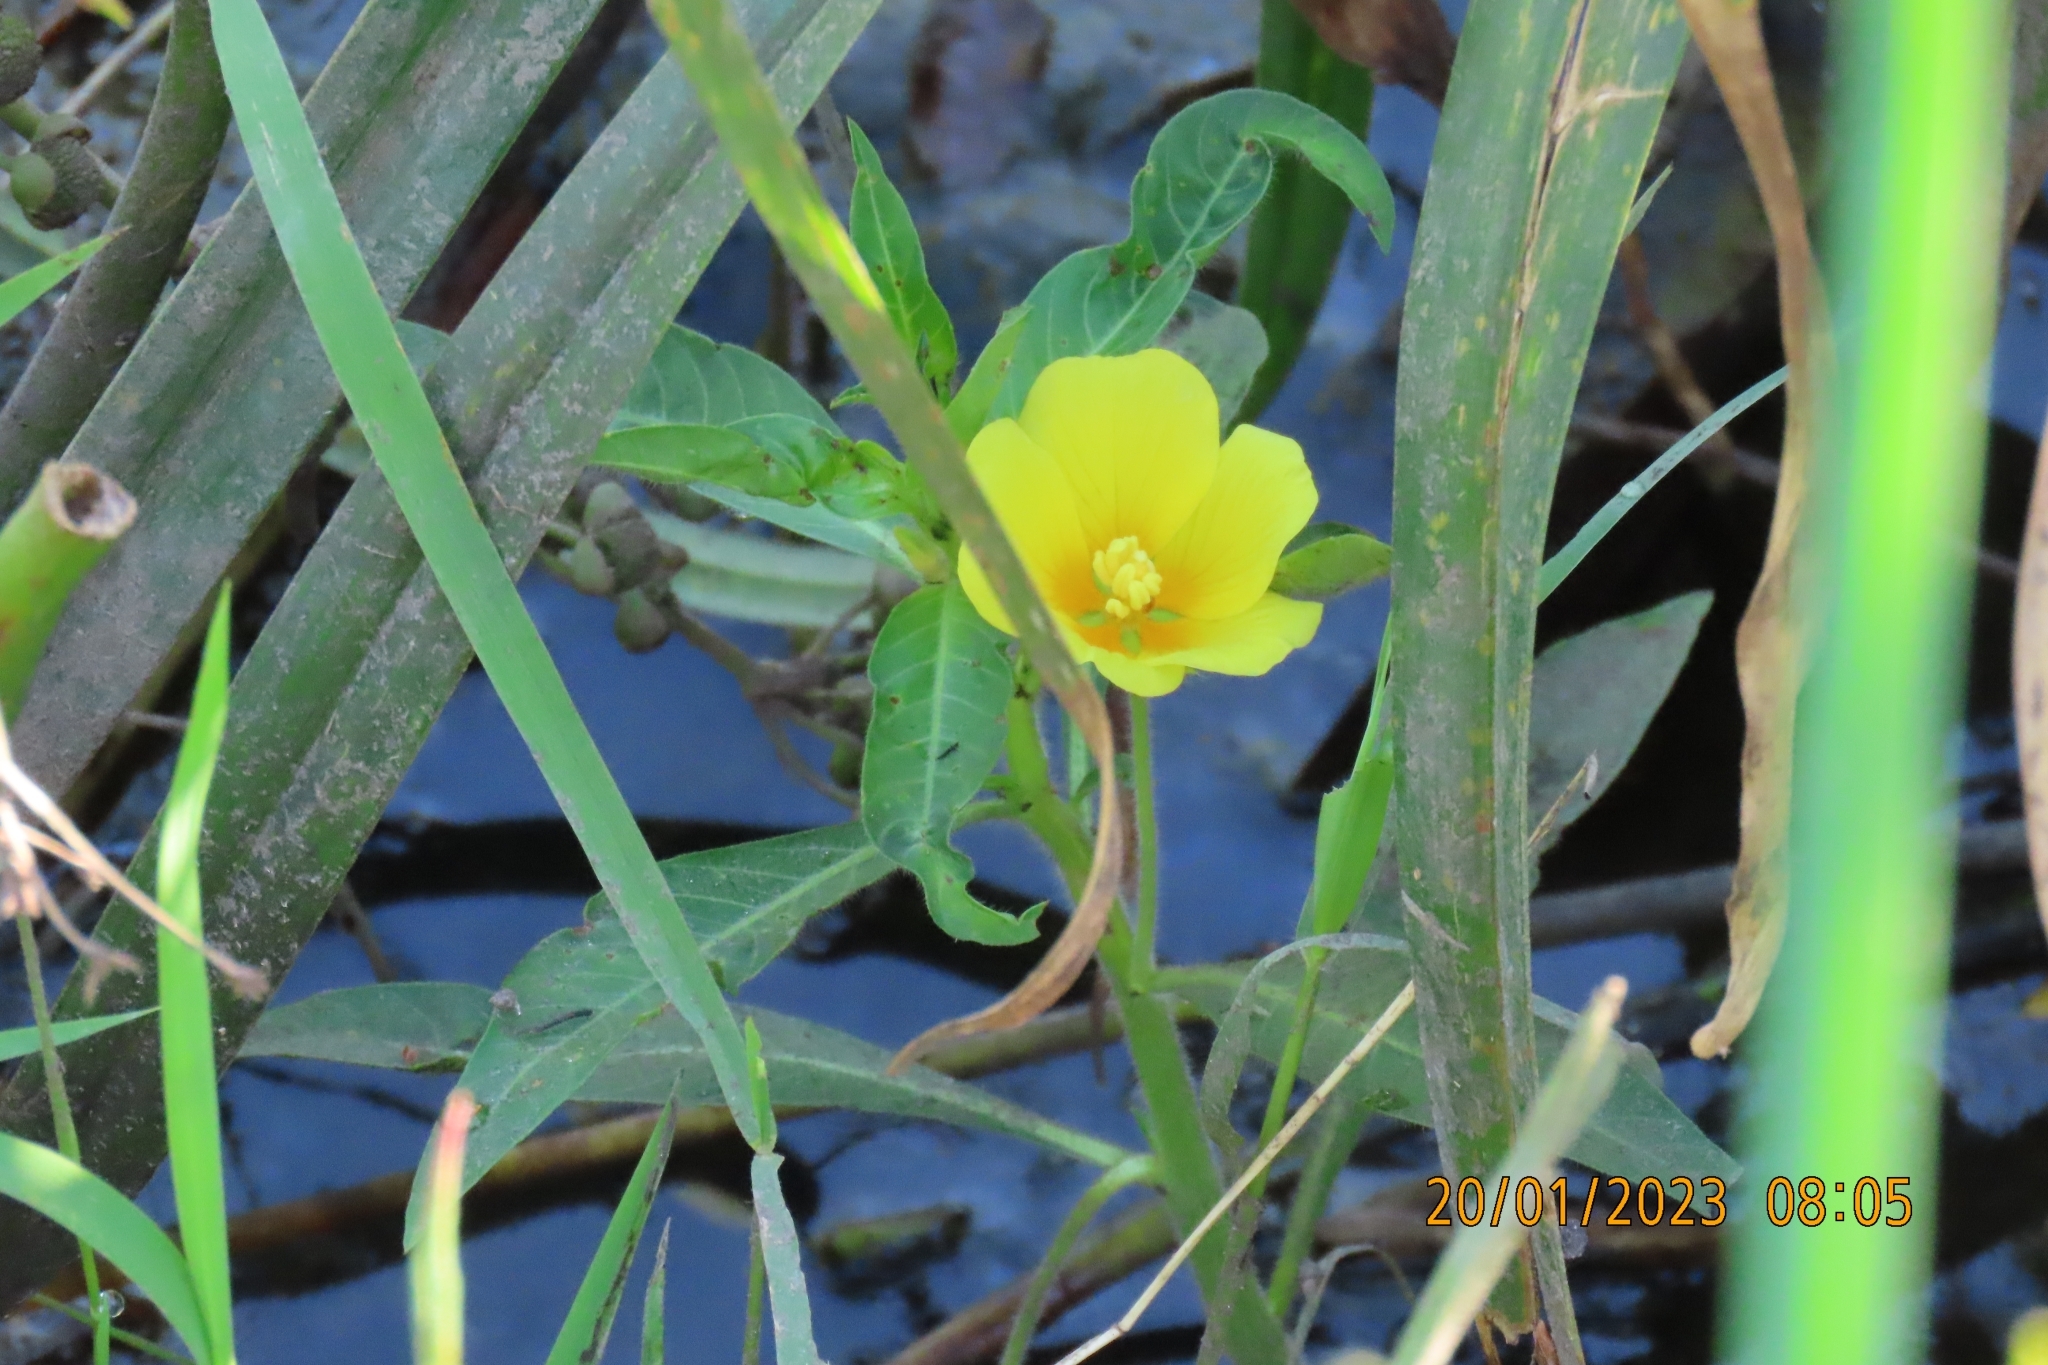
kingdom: Plantae
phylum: Tracheophyta
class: Magnoliopsida
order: Myrtales
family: Onagraceae
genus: Ludwigia
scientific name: Ludwigia peploides
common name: Floating primrose-willow
